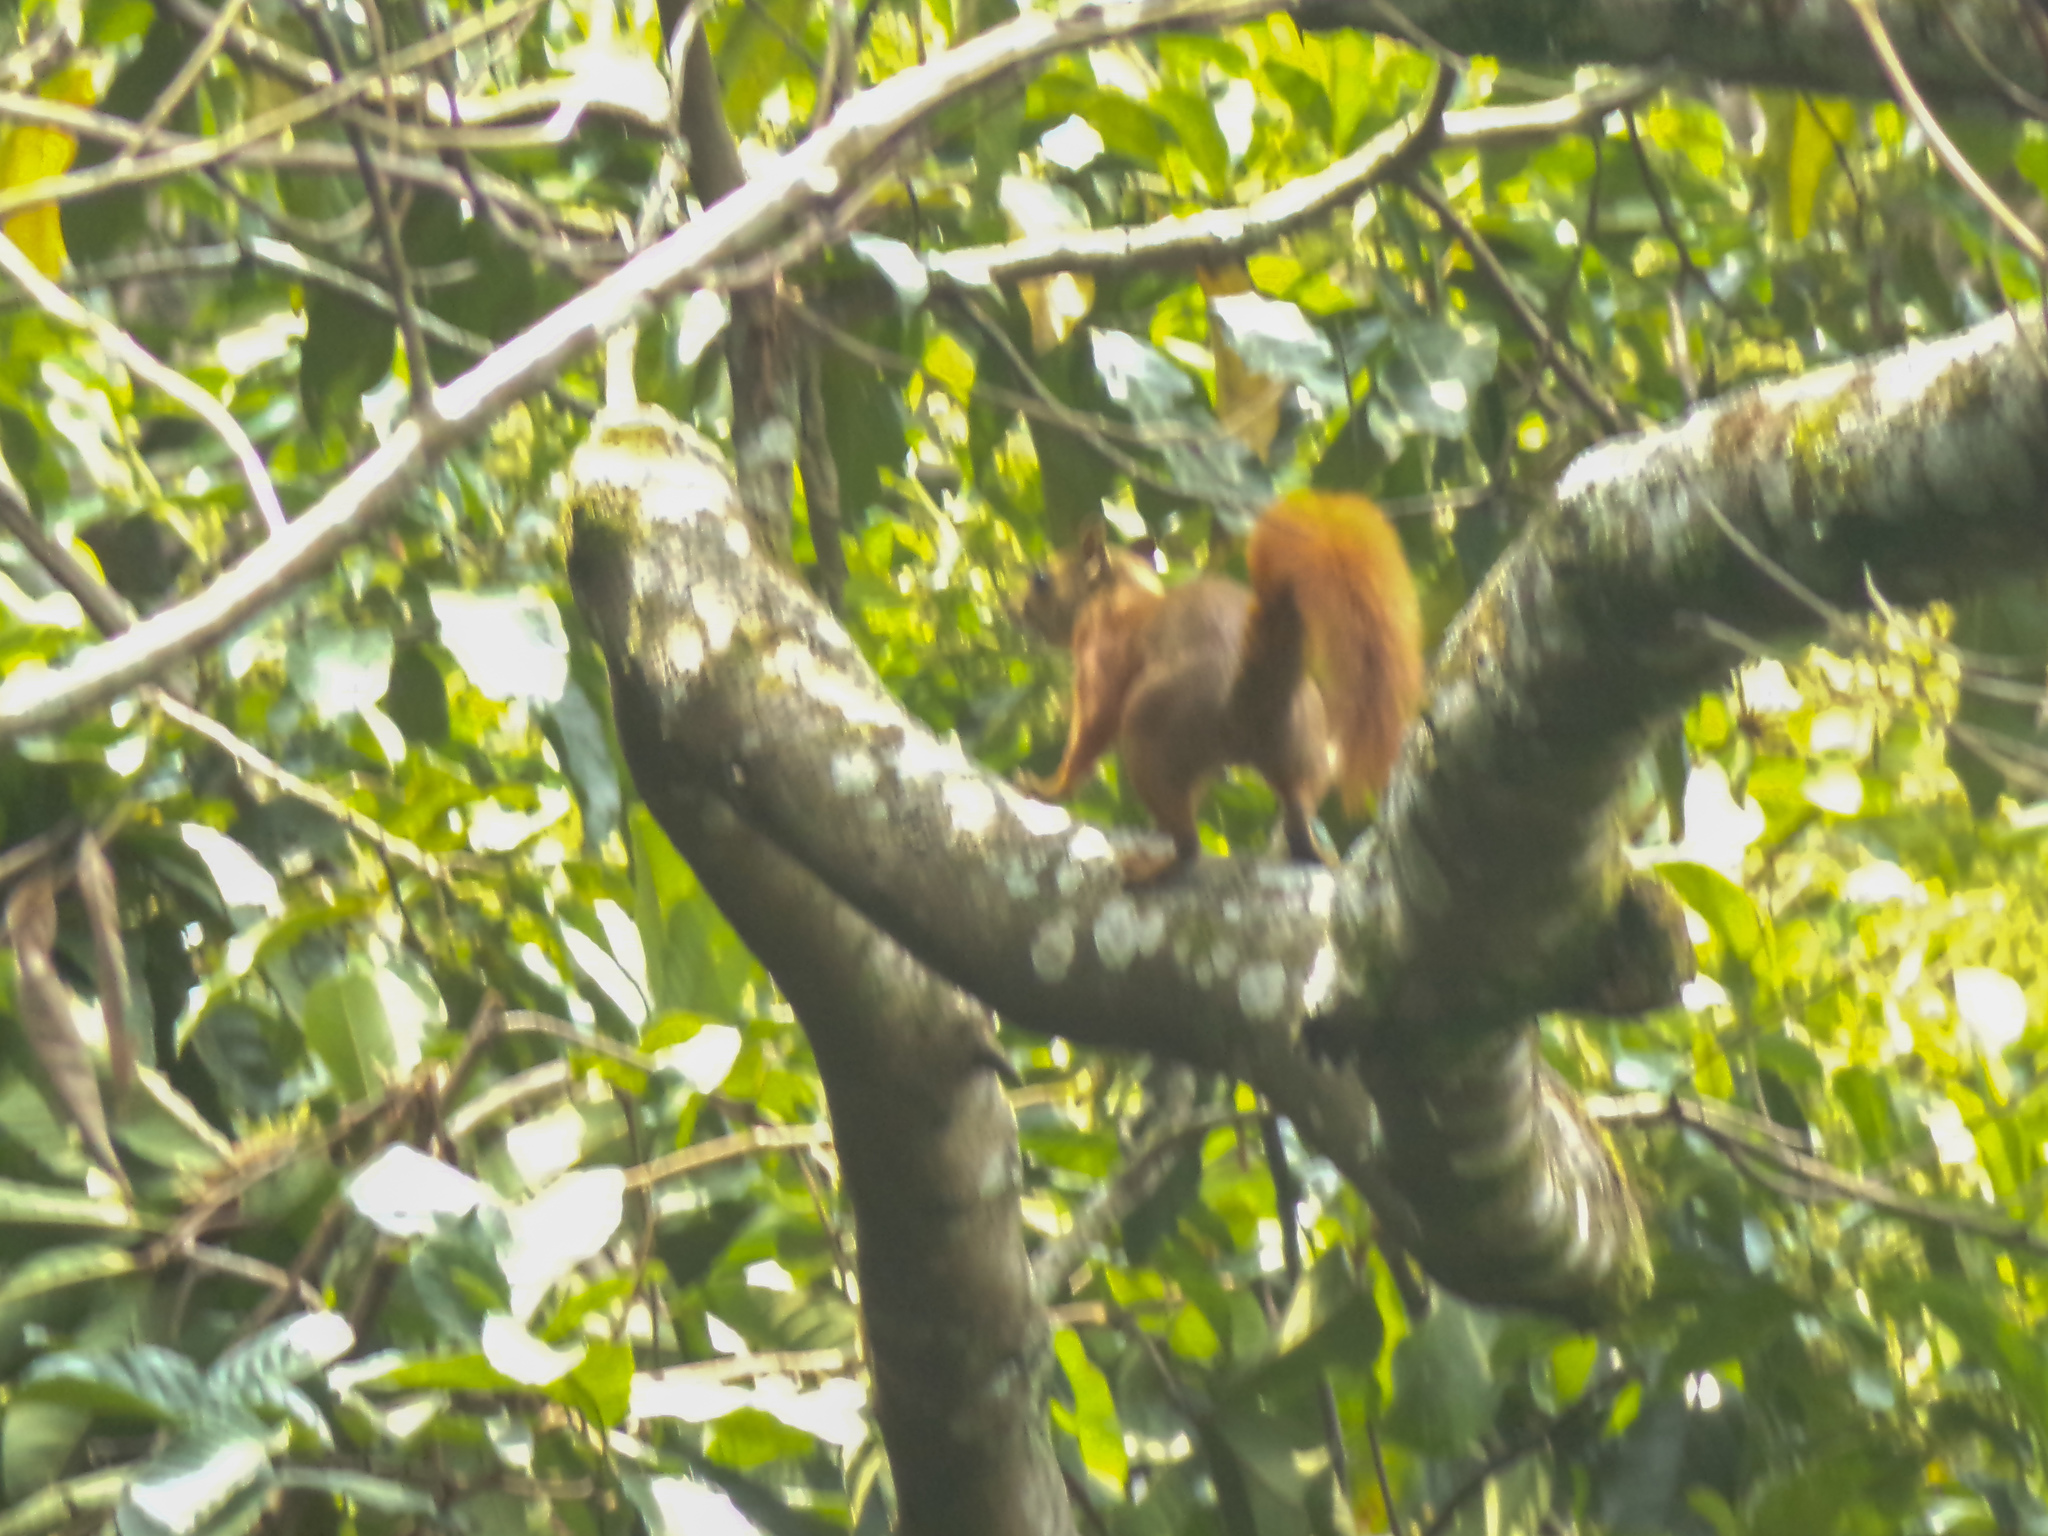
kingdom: Animalia
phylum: Chordata
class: Mammalia
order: Rodentia
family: Sciuridae
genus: Sciurus
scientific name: Sciurus granatensis
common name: Red-tailed squirrel
